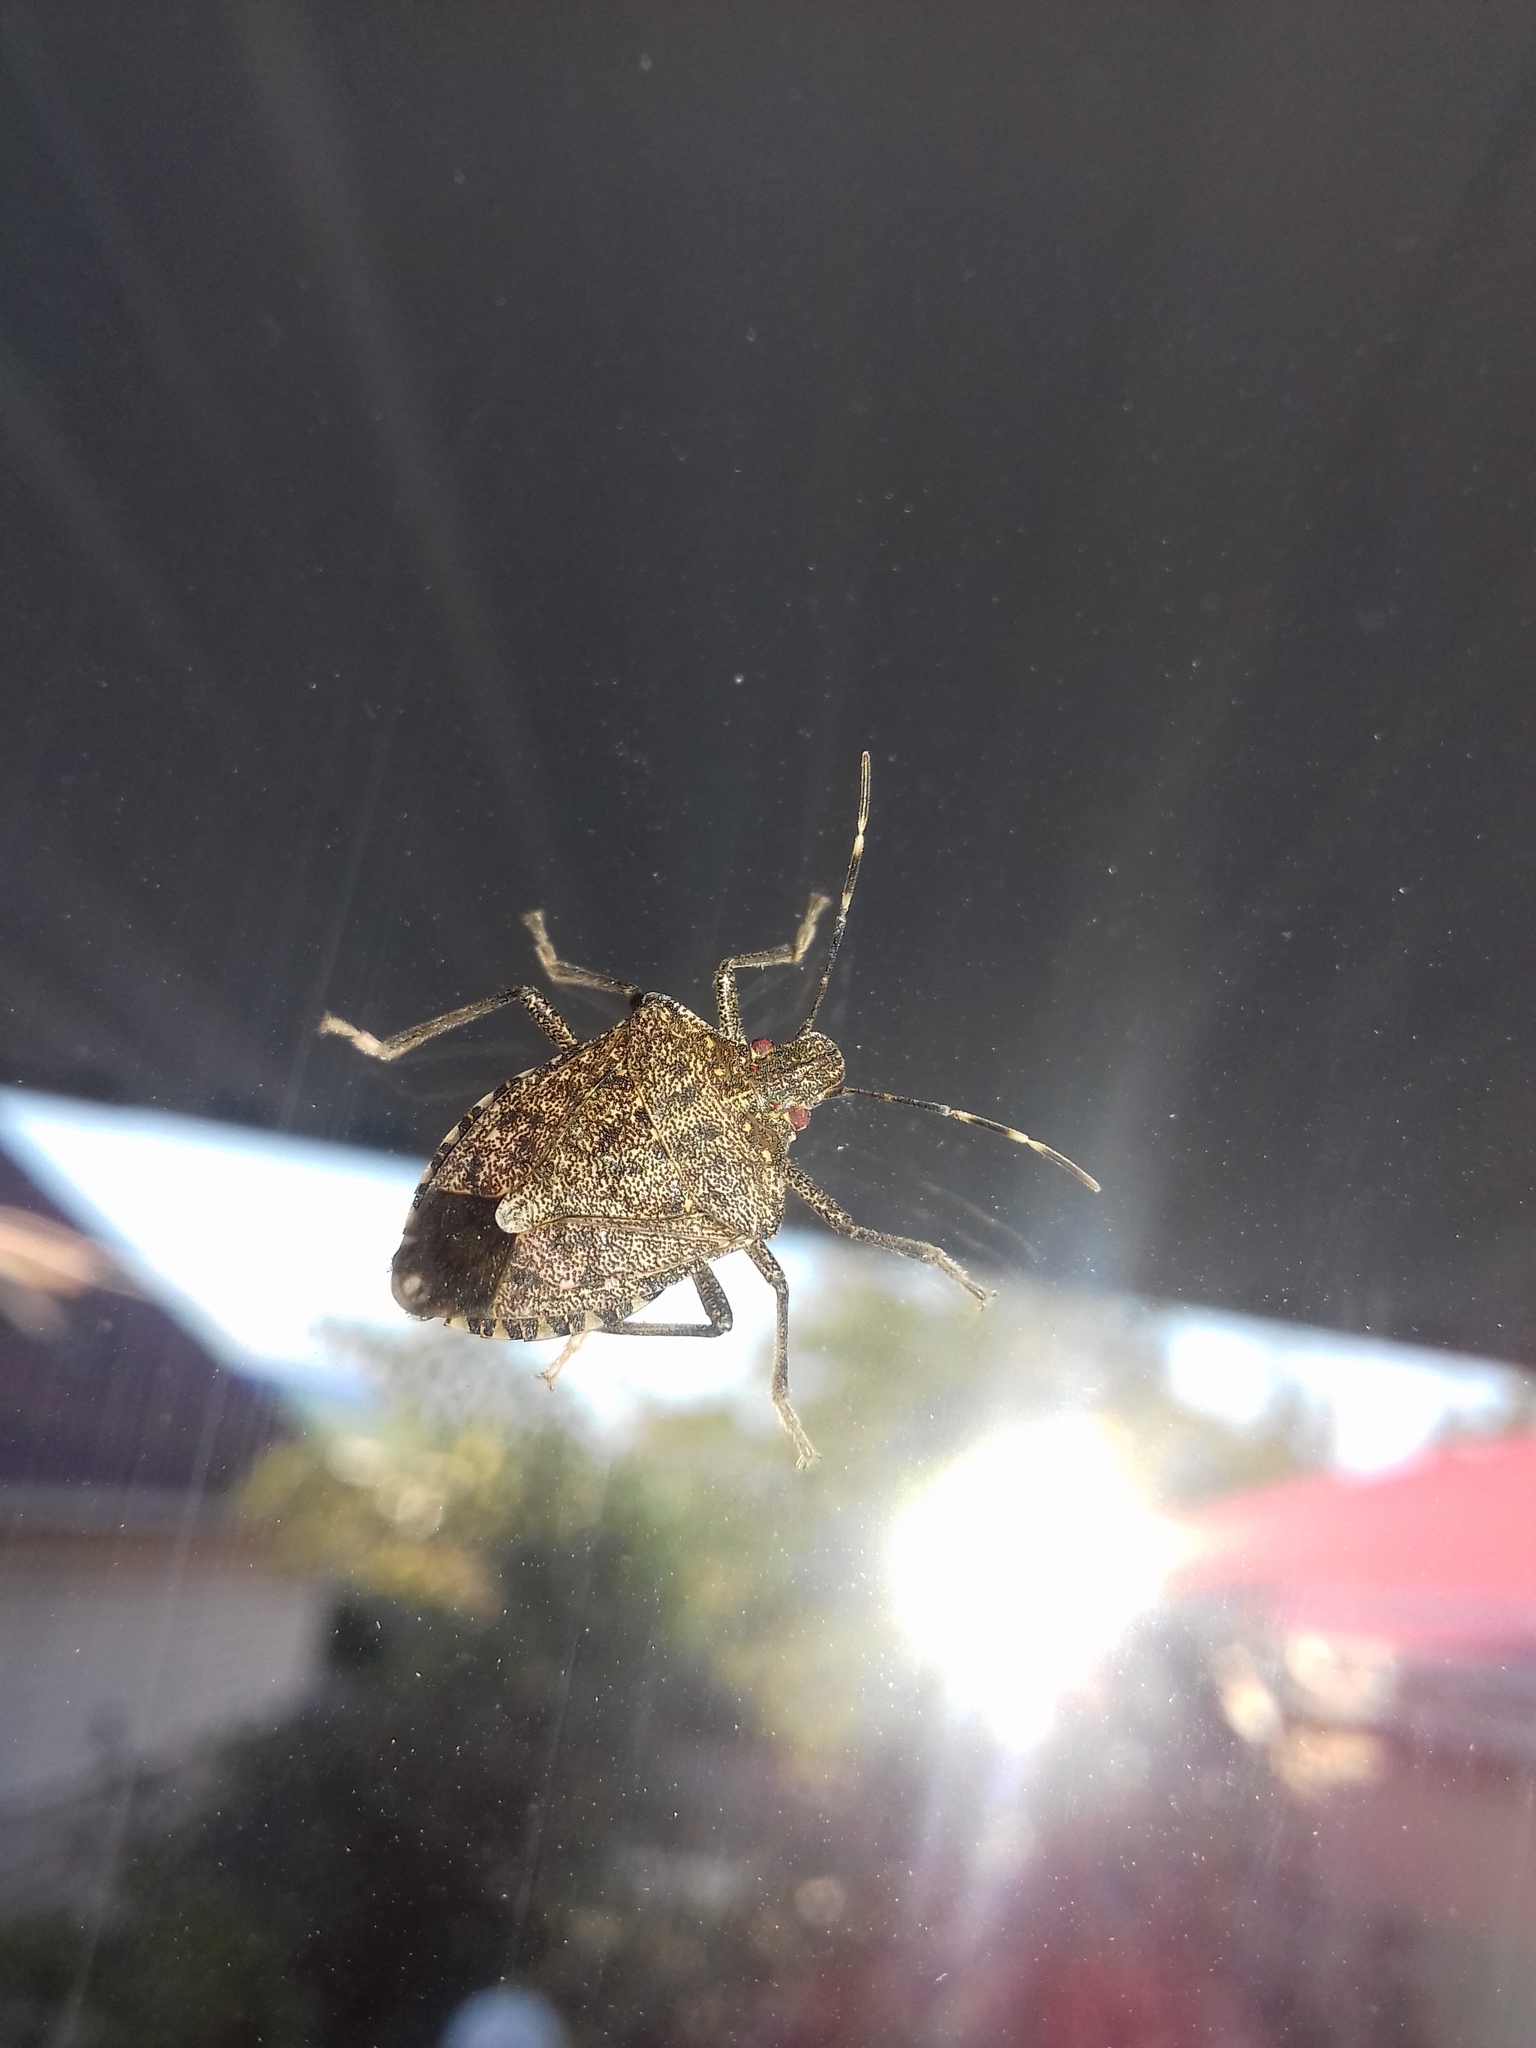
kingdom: Animalia
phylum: Arthropoda
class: Insecta
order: Hemiptera
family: Pentatomidae
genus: Halyomorpha
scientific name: Halyomorpha halys
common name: Brown marmorated stink bug
